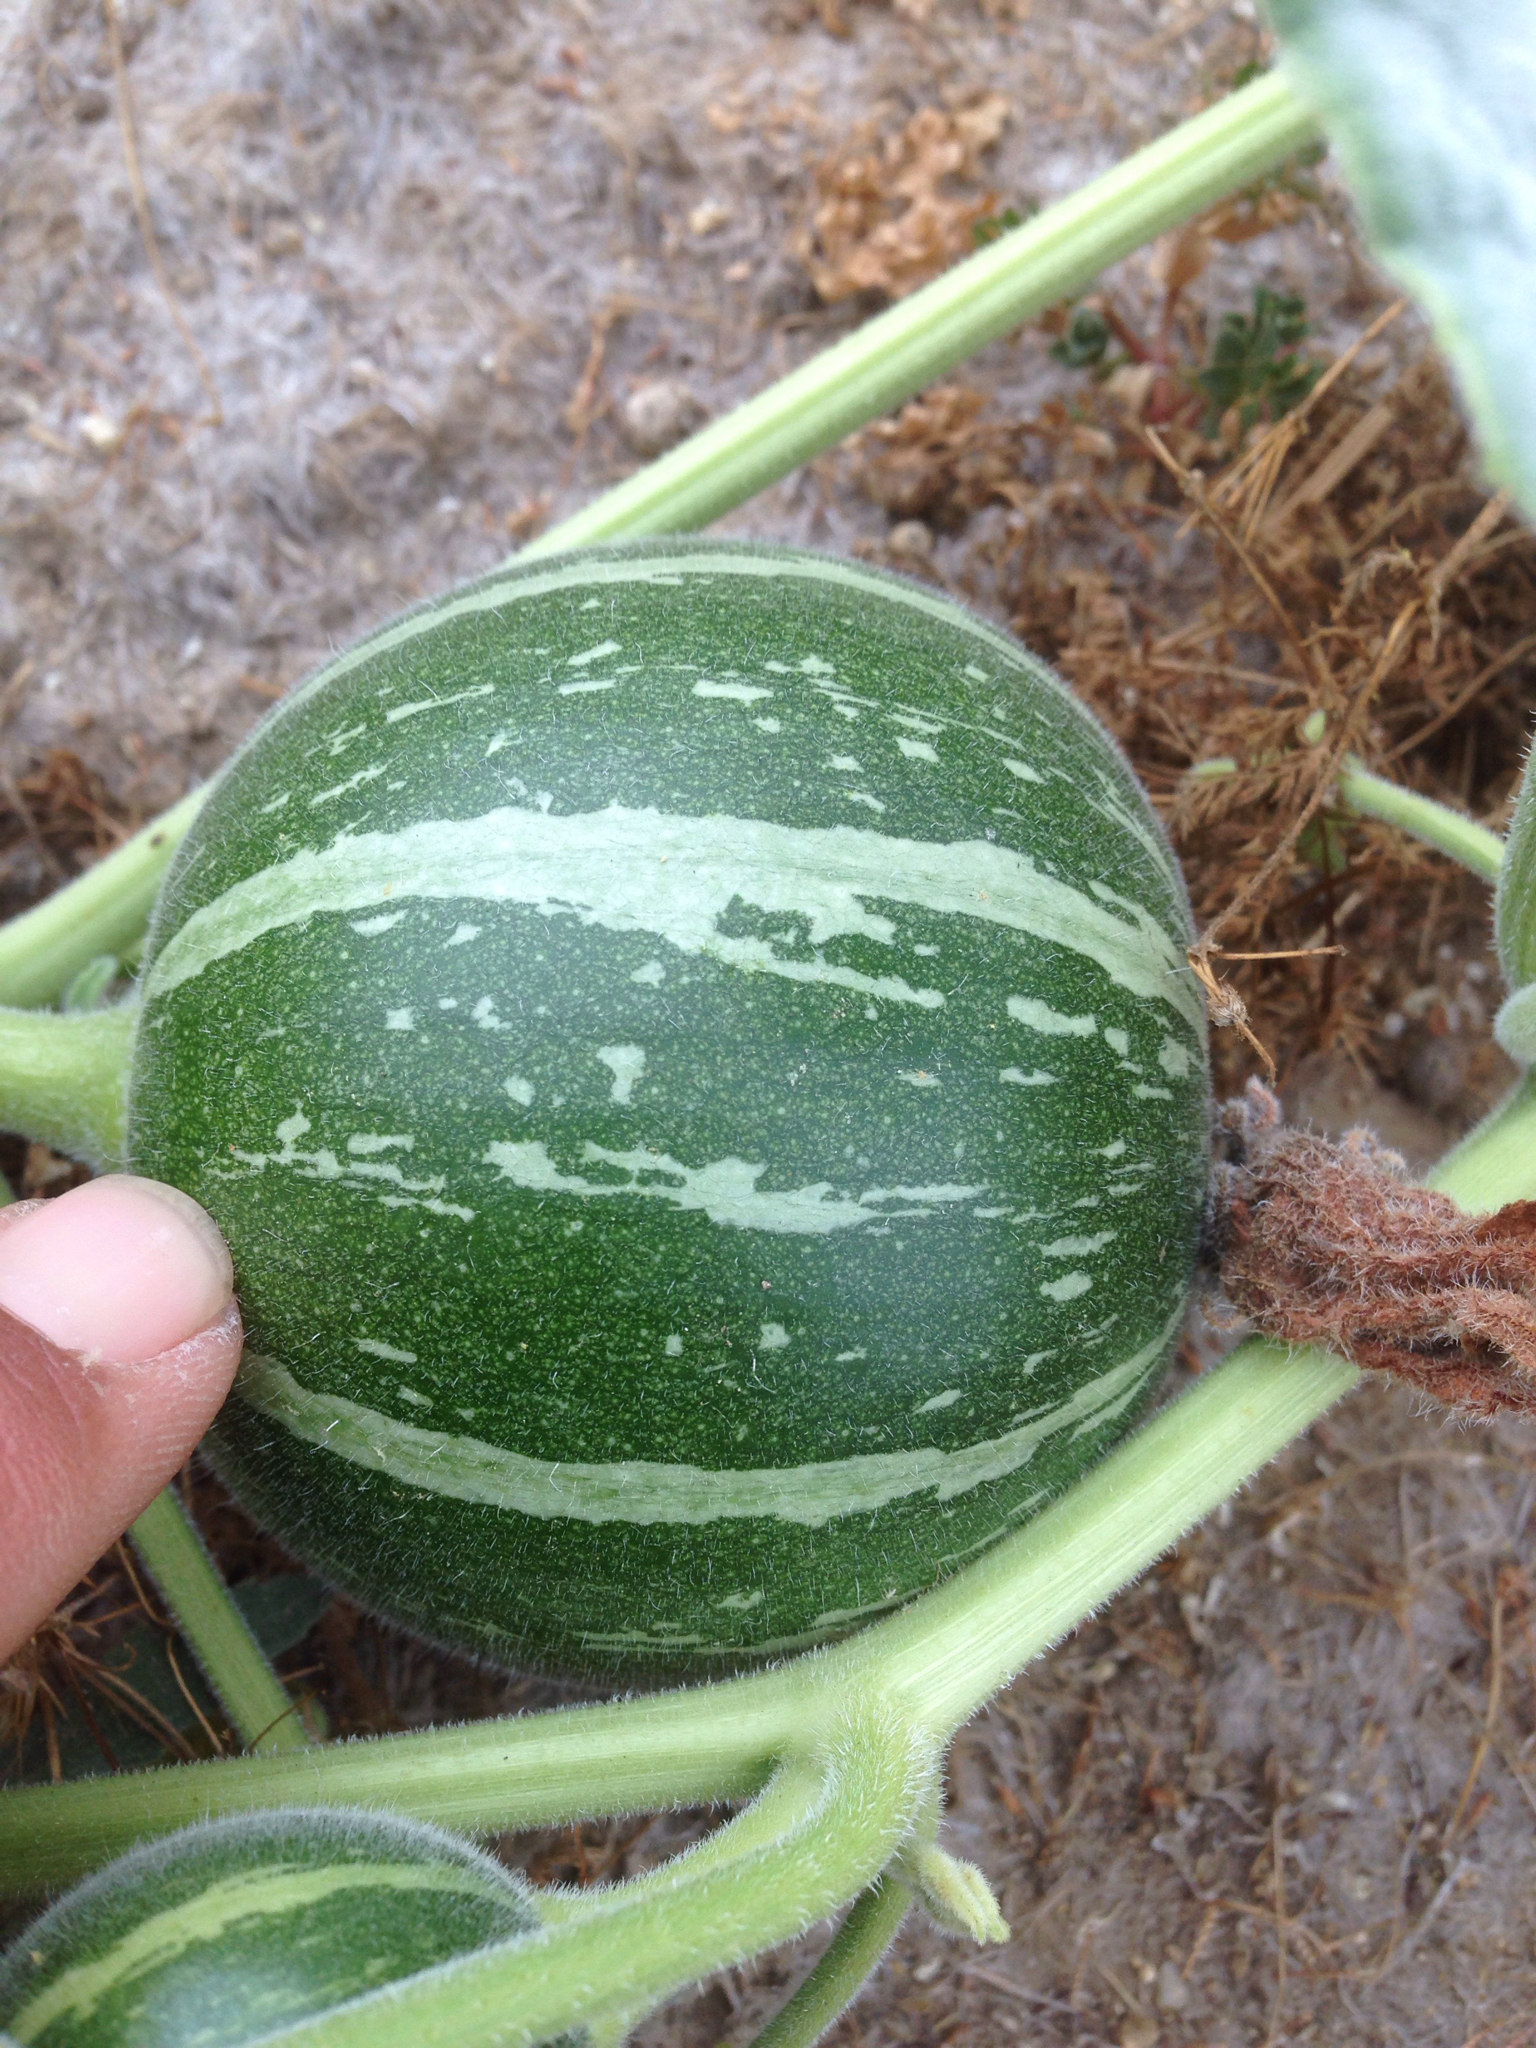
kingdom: Plantae
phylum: Tracheophyta
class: Magnoliopsida
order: Cucurbitales
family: Cucurbitaceae
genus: Cucurbita
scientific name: Cucurbita foetidissima
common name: Buffalo gourd
